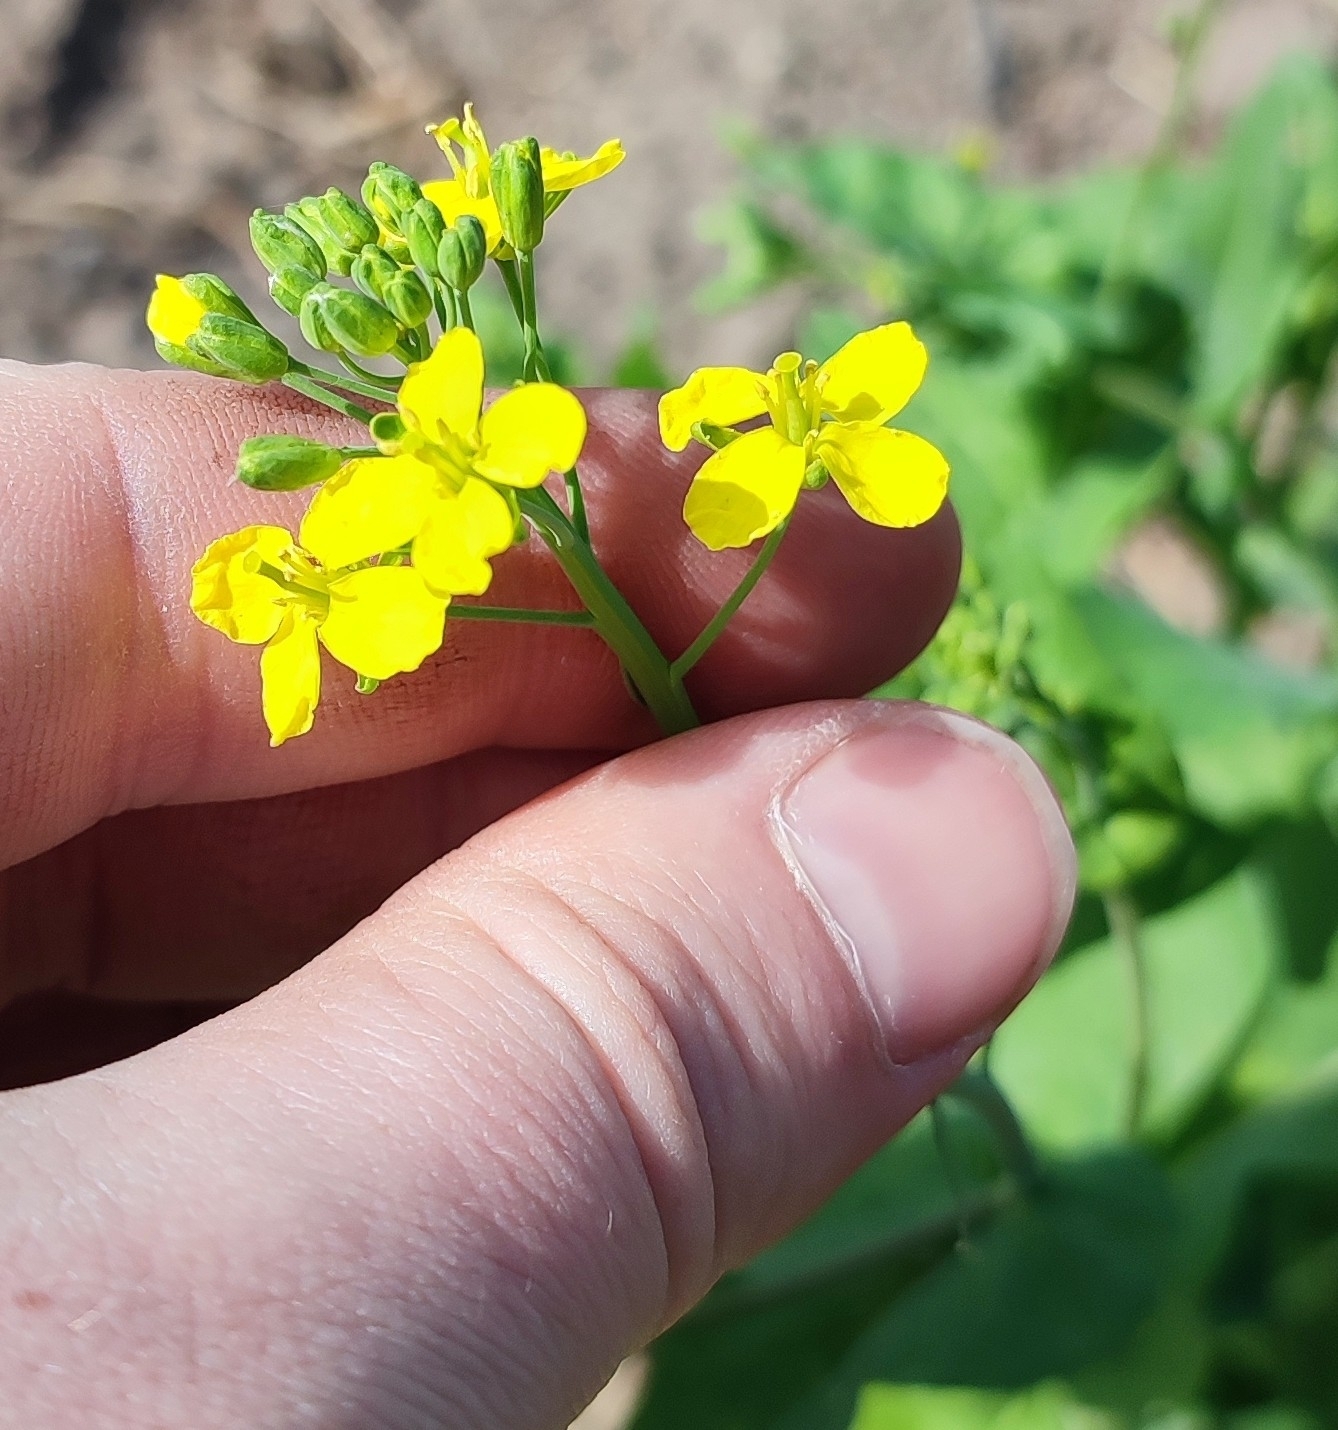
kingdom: Plantae
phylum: Tracheophyta
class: Magnoliopsida
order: Brassicales
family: Brassicaceae
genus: Brassica
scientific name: Brassica rapa
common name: Field mustard
